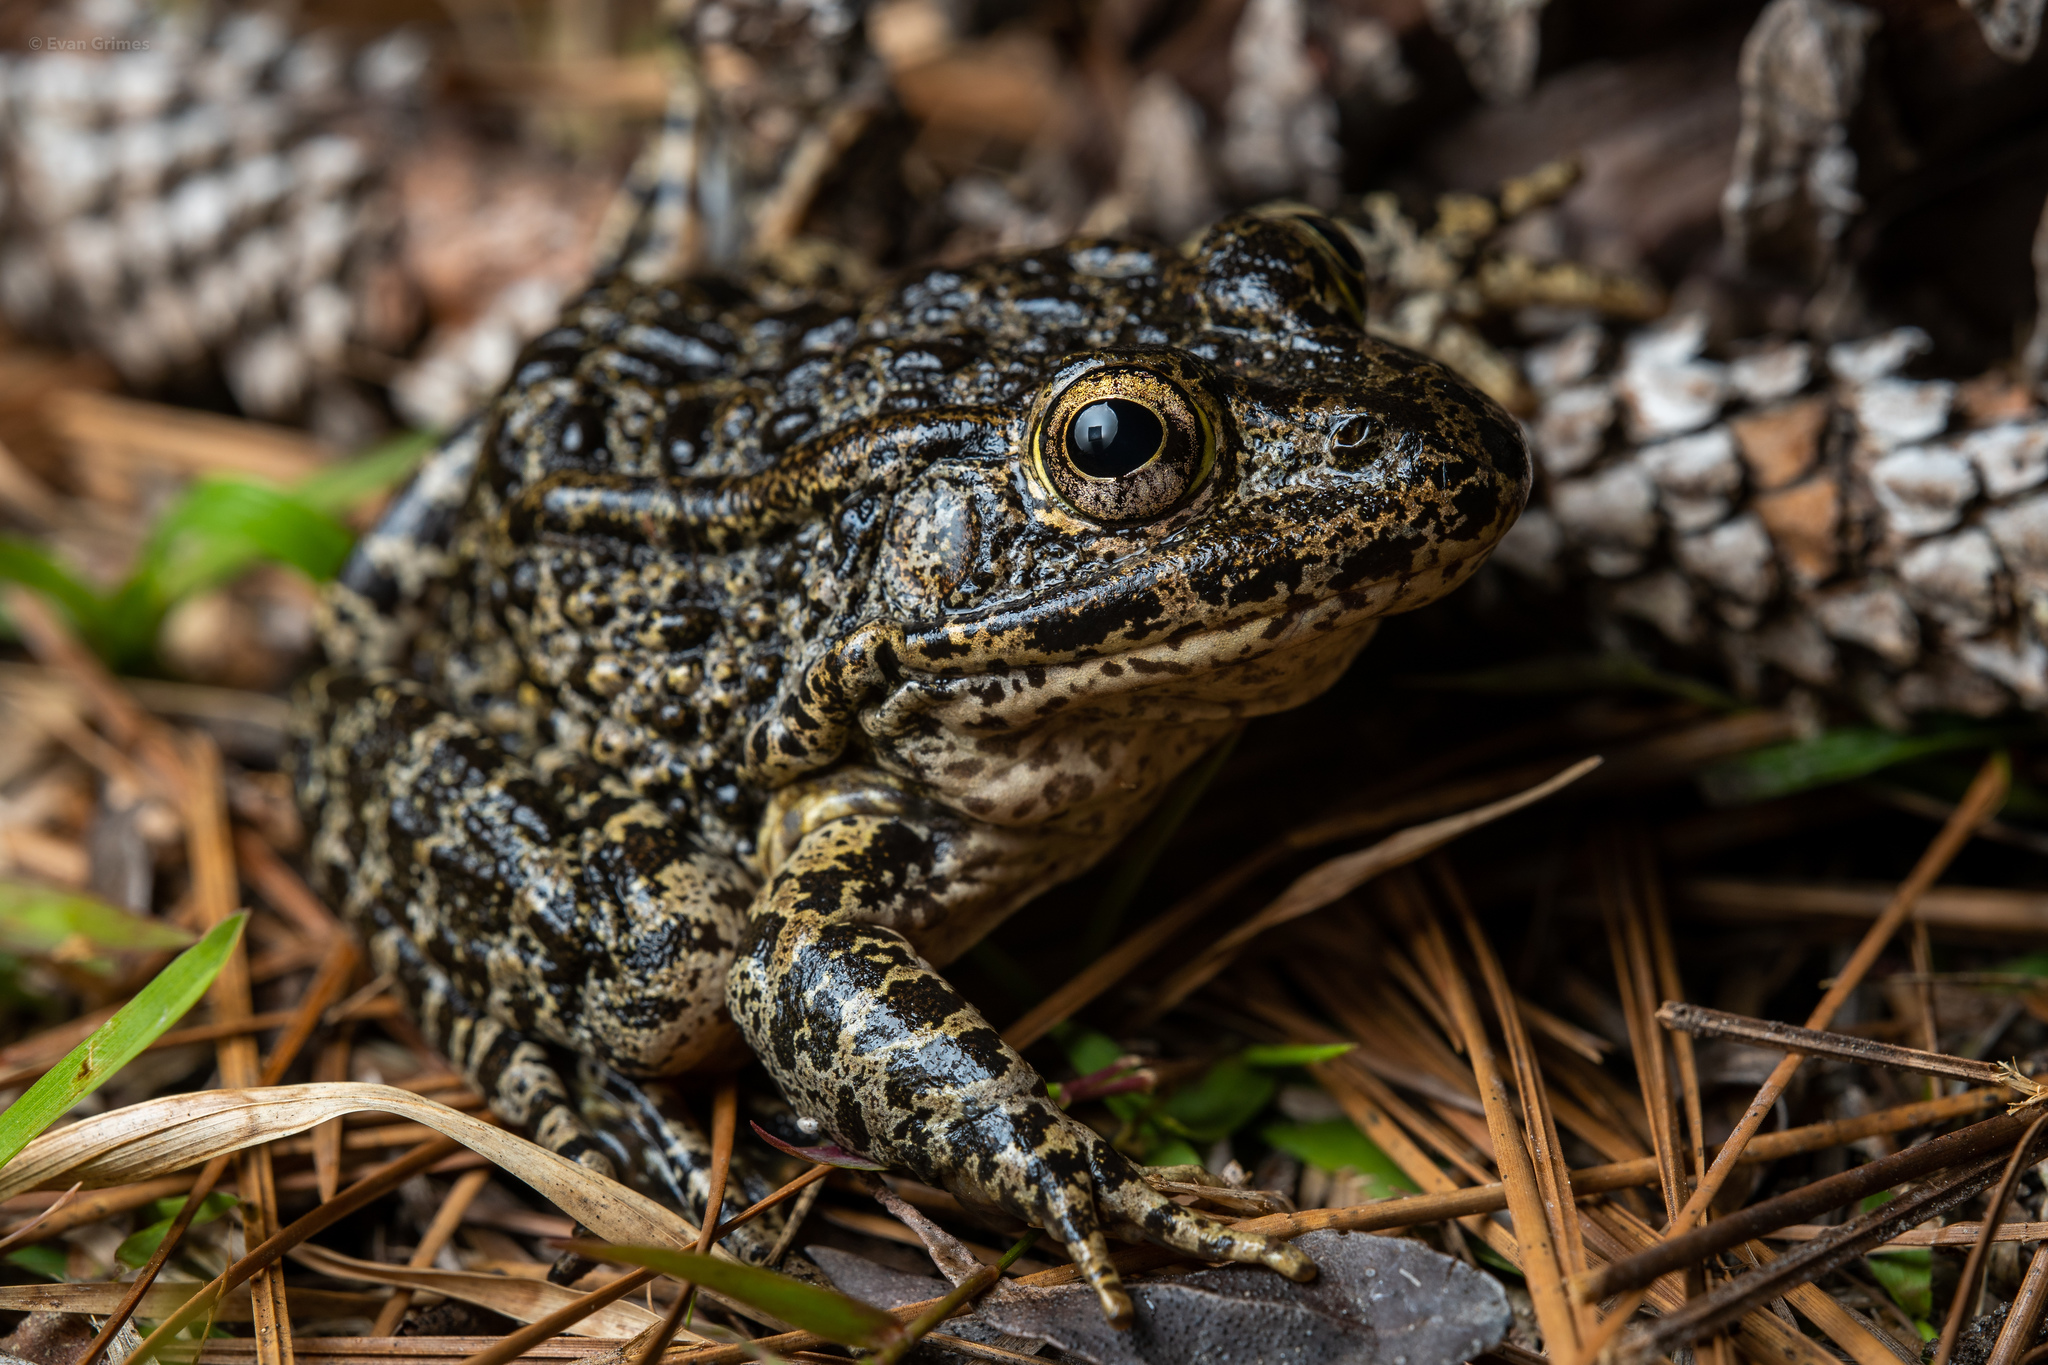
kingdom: Animalia
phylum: Chordata
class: Amphibia
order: Anura
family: Ranidae
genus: Lithobates
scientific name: Lithobates sevosus
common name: Dusky gopher frog
